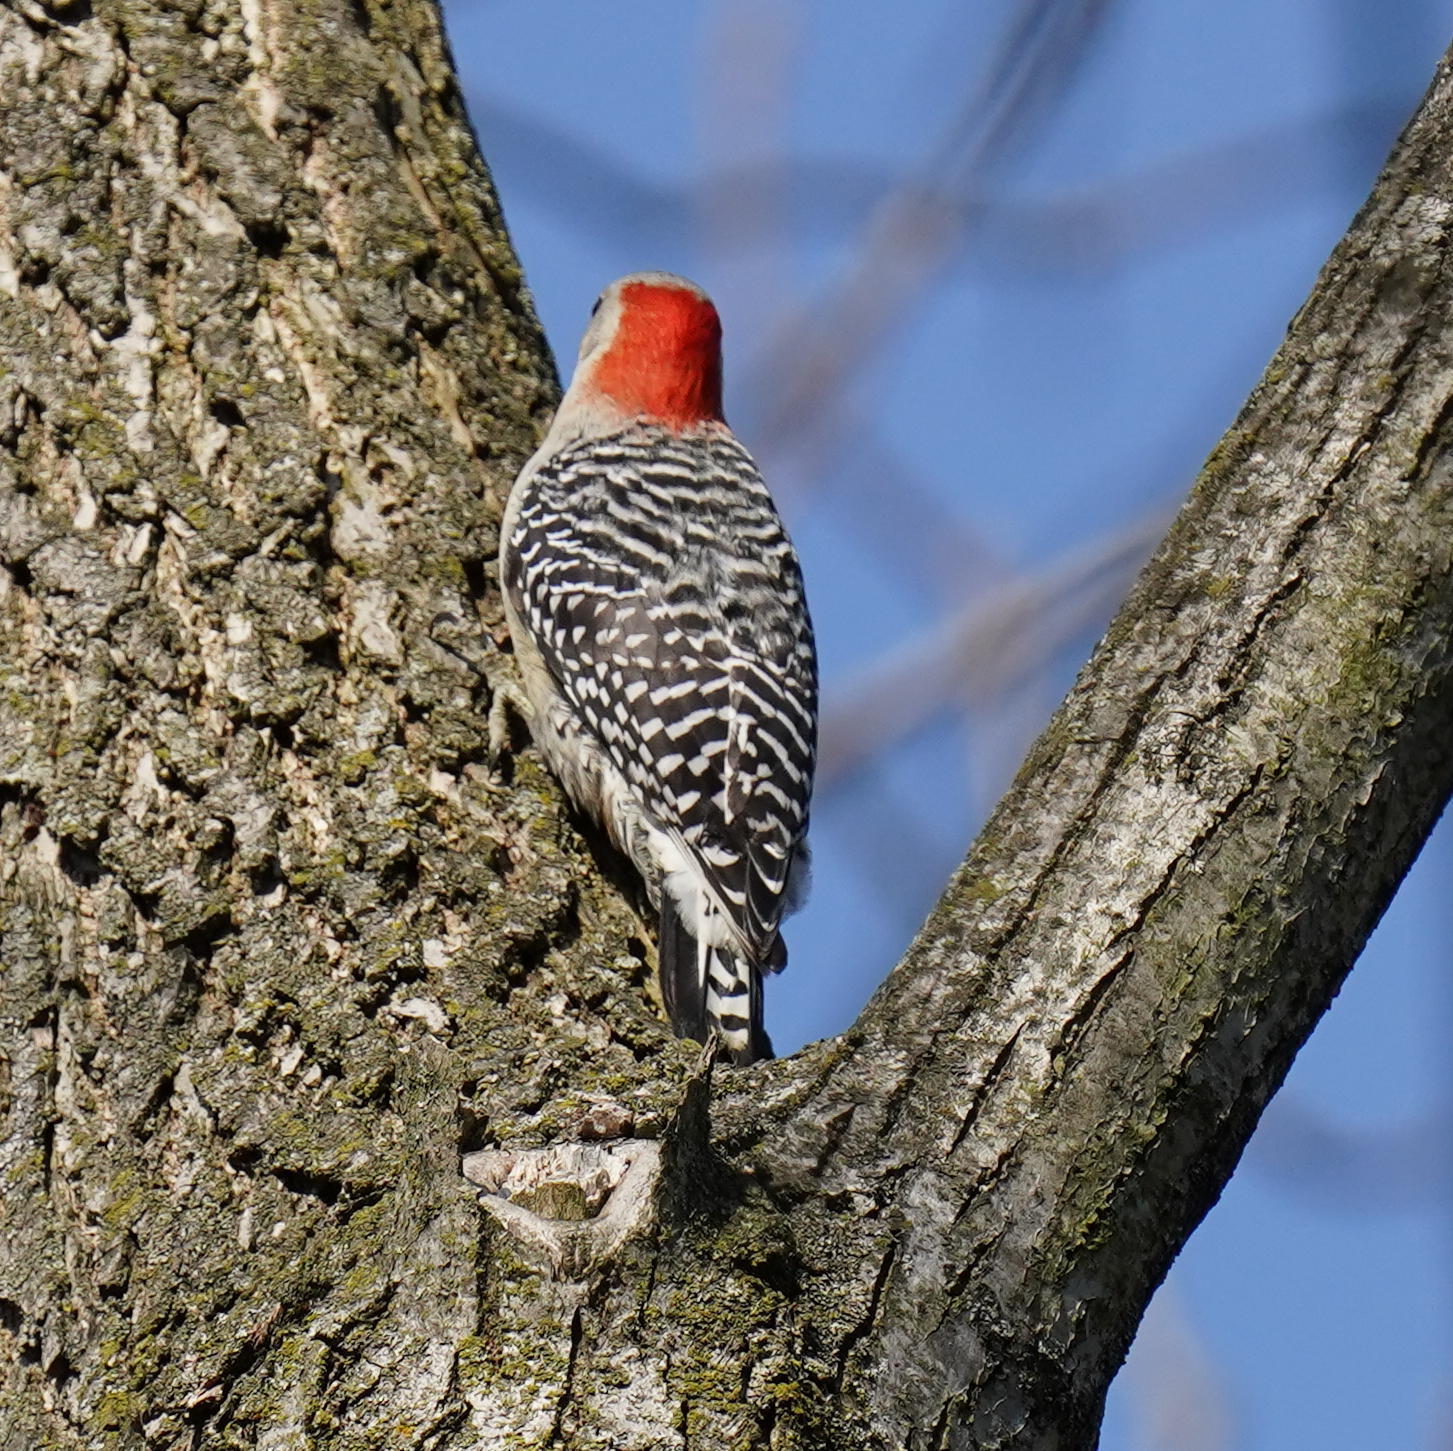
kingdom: Animalia
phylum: Chordata
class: Aves
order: Piciformes
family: Picidae
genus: Melanerpes
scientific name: Melanerpes carolinus
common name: Red-bellied woodpecker
